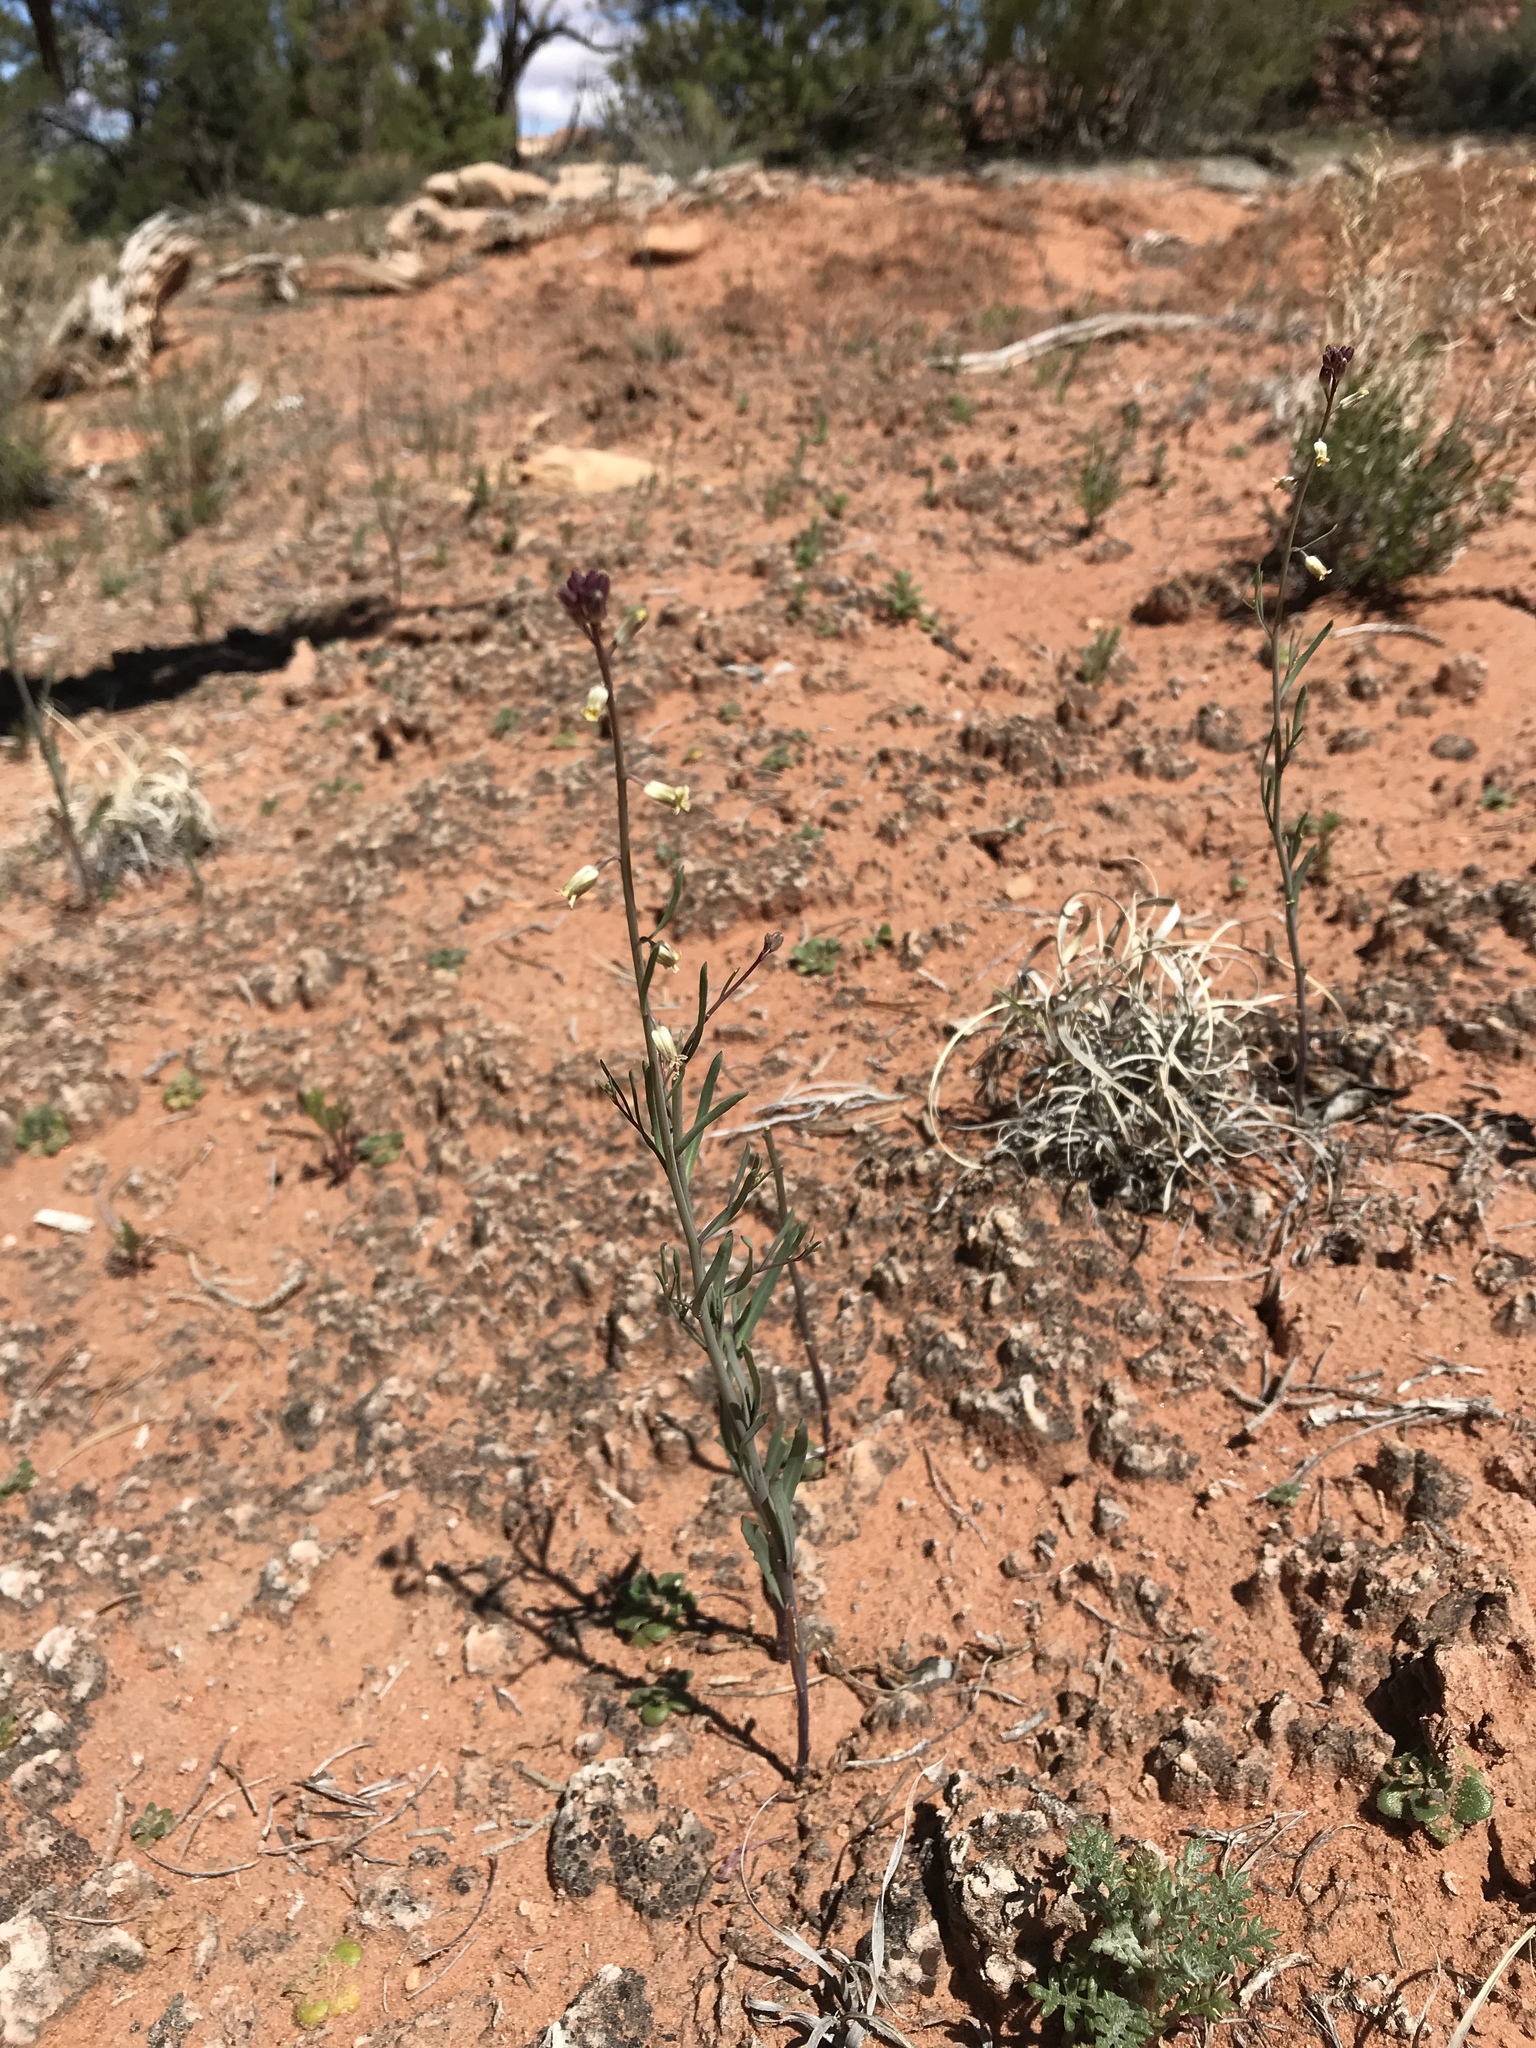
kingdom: Plantae
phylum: Tracheophyta
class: Magnoliopsida
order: Brassicales
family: Brassicaceae
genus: Streptanthus
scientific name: Streptanthus longirostris
